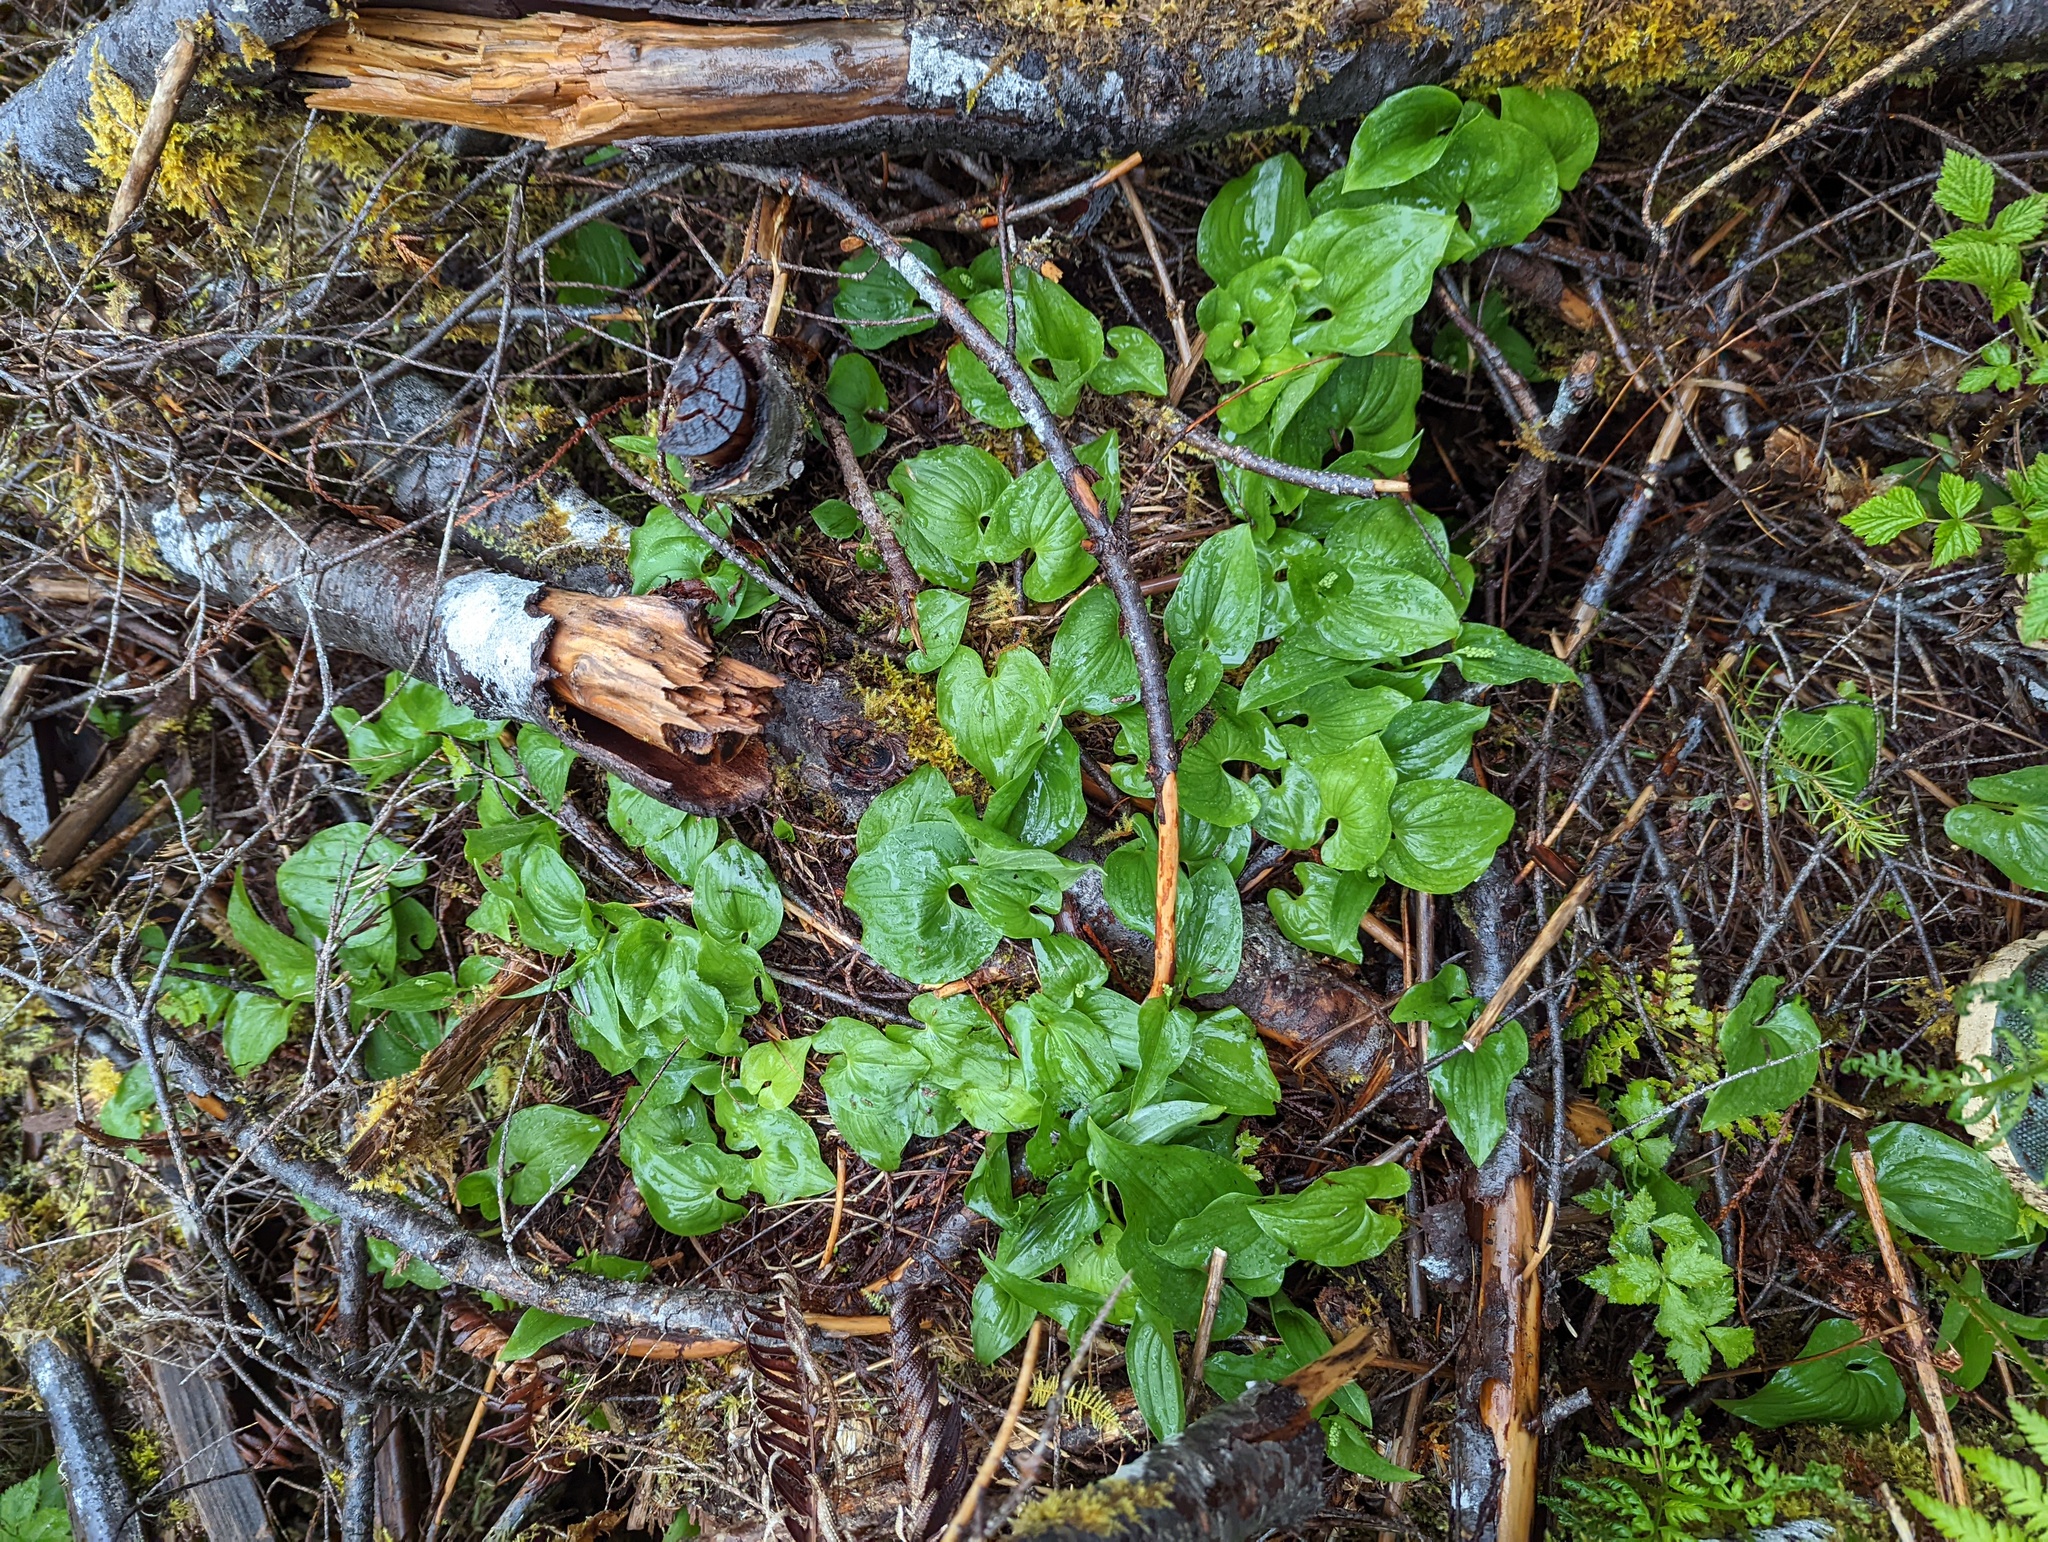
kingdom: Plantae
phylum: Tracheophyta
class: Liliopsida
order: Asparagales
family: Asparagaceae
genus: Maianthemum
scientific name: Maianthemum dilatatum
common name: False lily-of-the-valley
